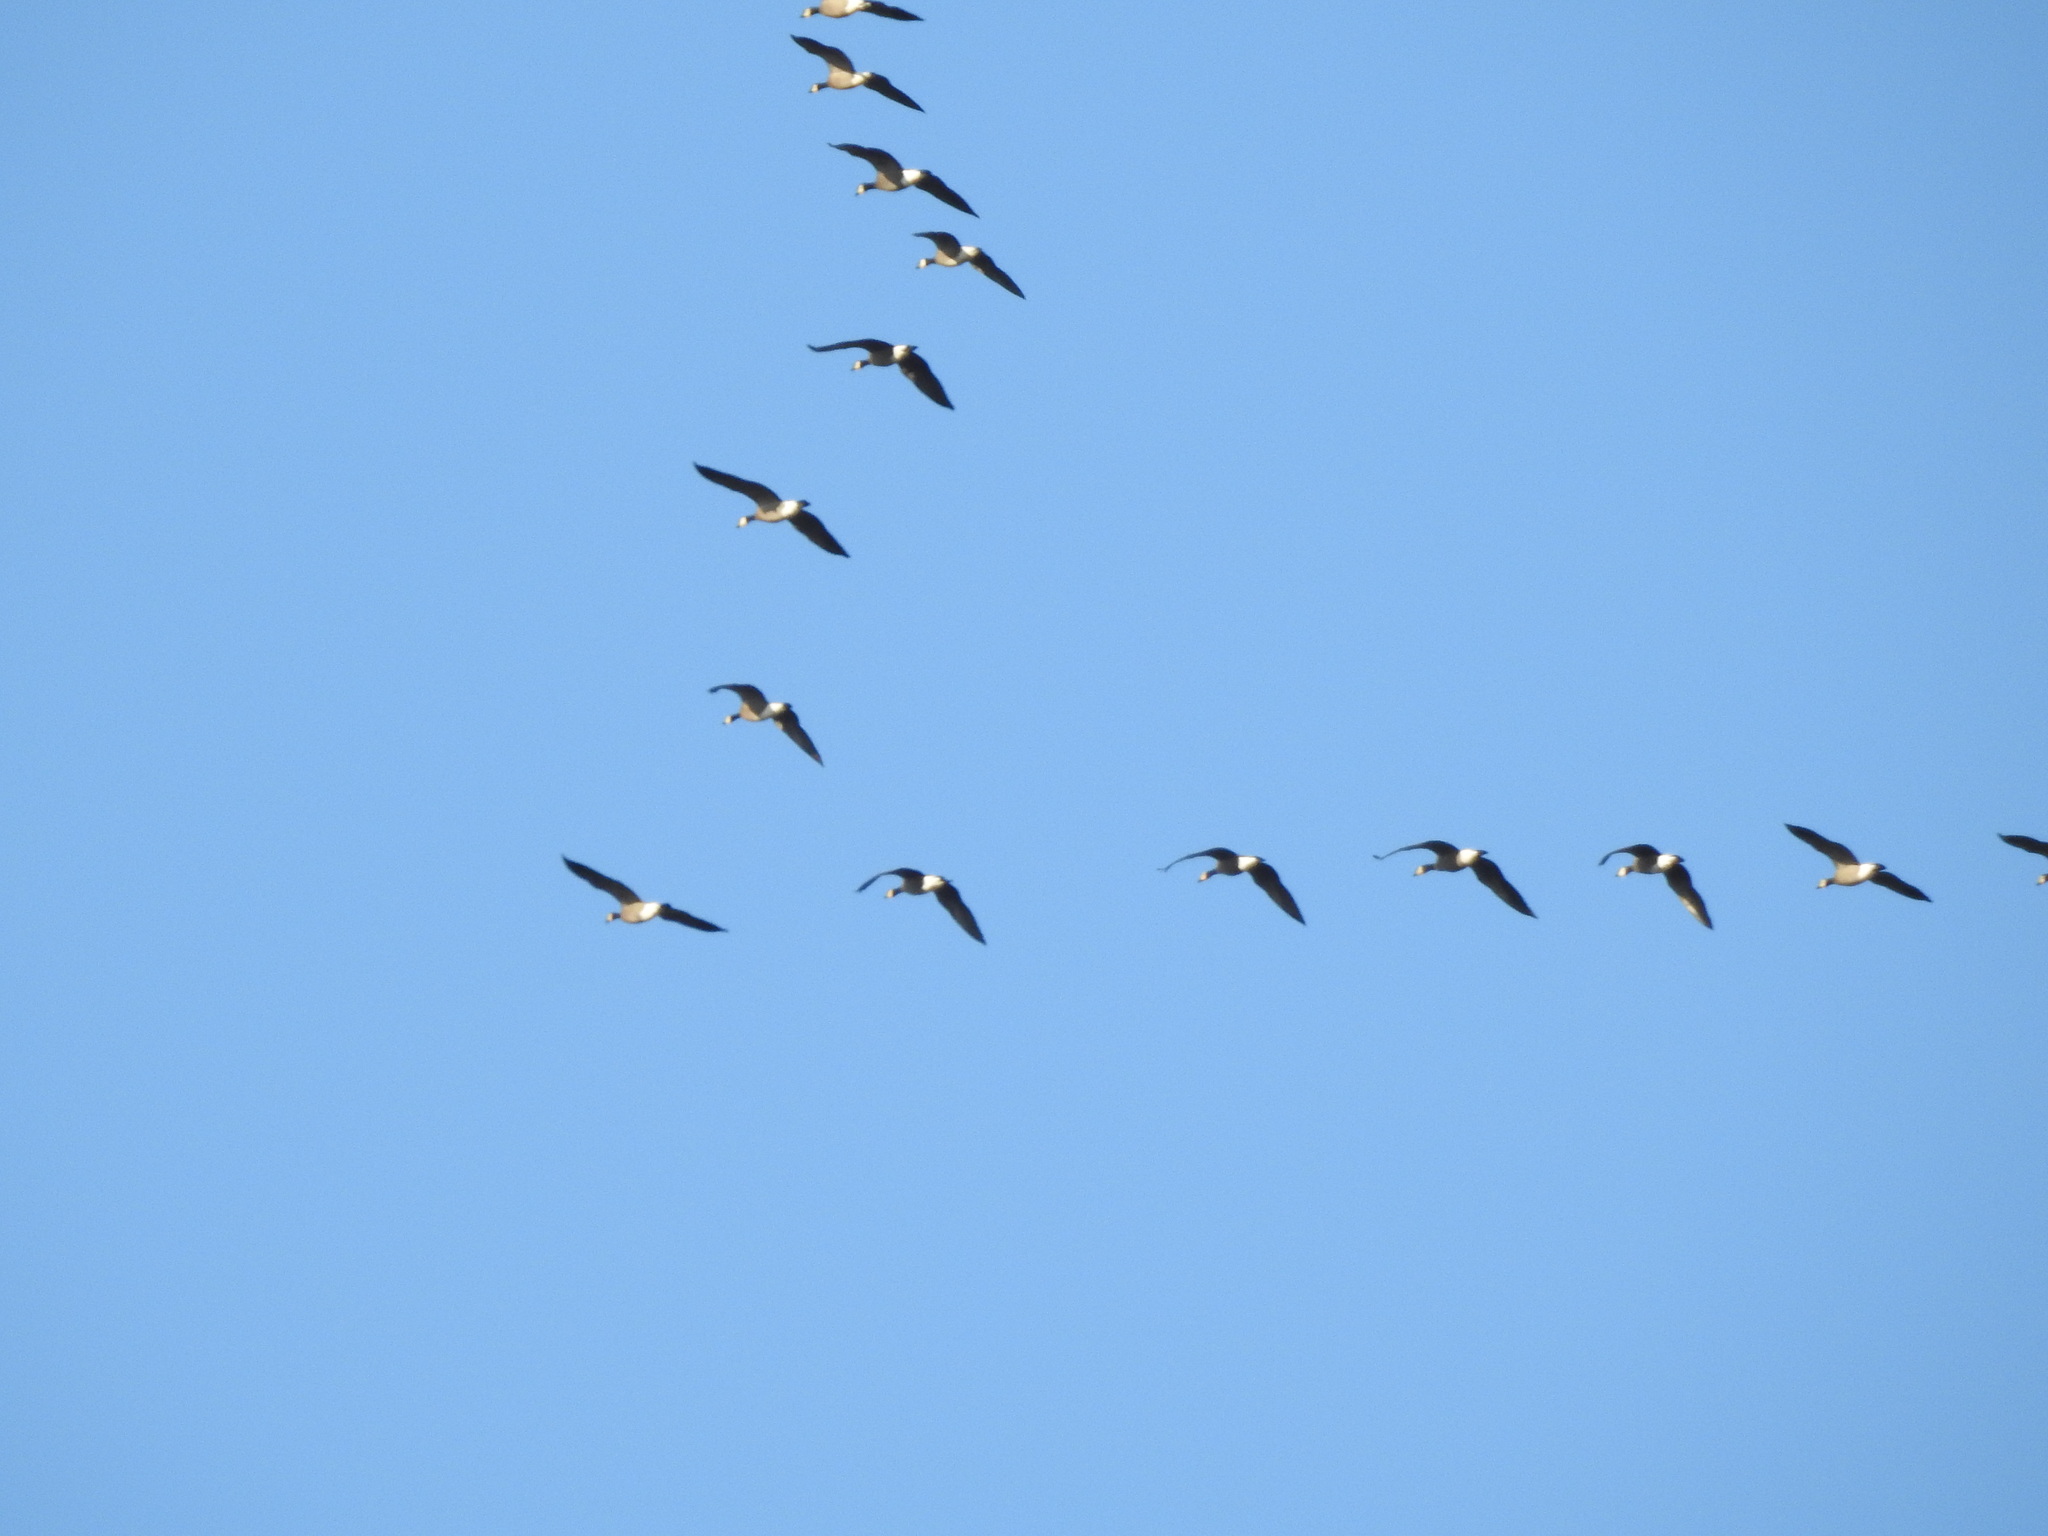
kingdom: Animalia
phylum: Chordata
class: Aves
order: Anseriformes
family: Anatidae
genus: Branta
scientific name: Branta canadensis
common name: Canada goose
